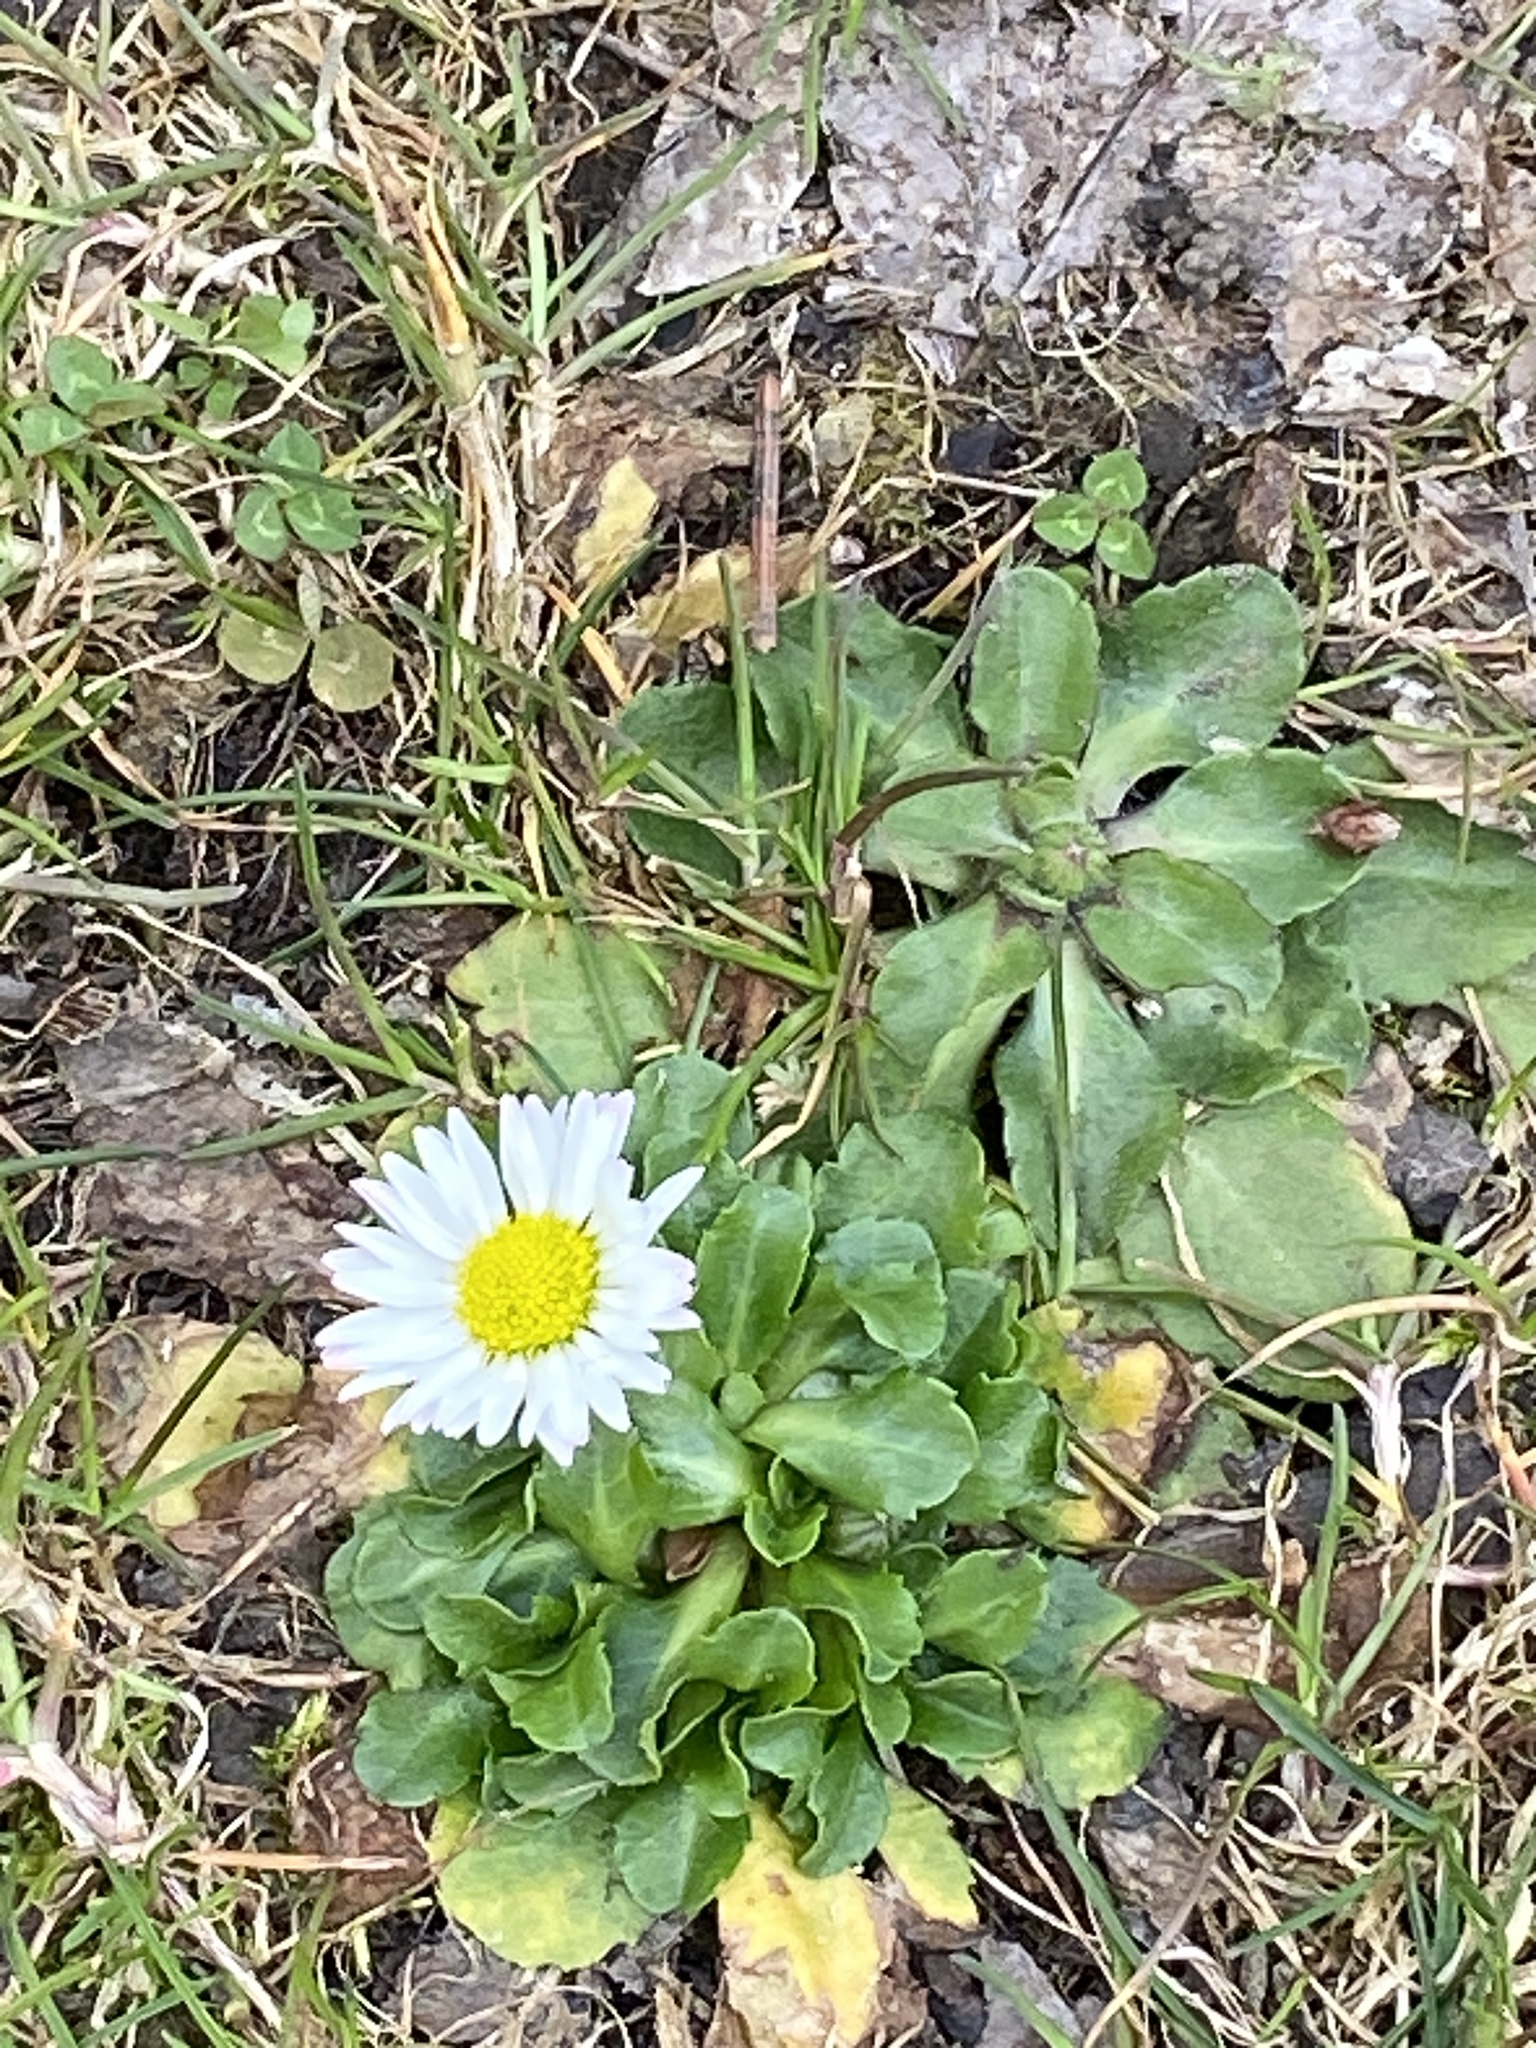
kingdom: Plantae
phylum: Tracheophyta
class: Magnoliopsida
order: Asterales
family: Asteraceae
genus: Bellis
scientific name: Bellis perennis
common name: Lawndaisy
